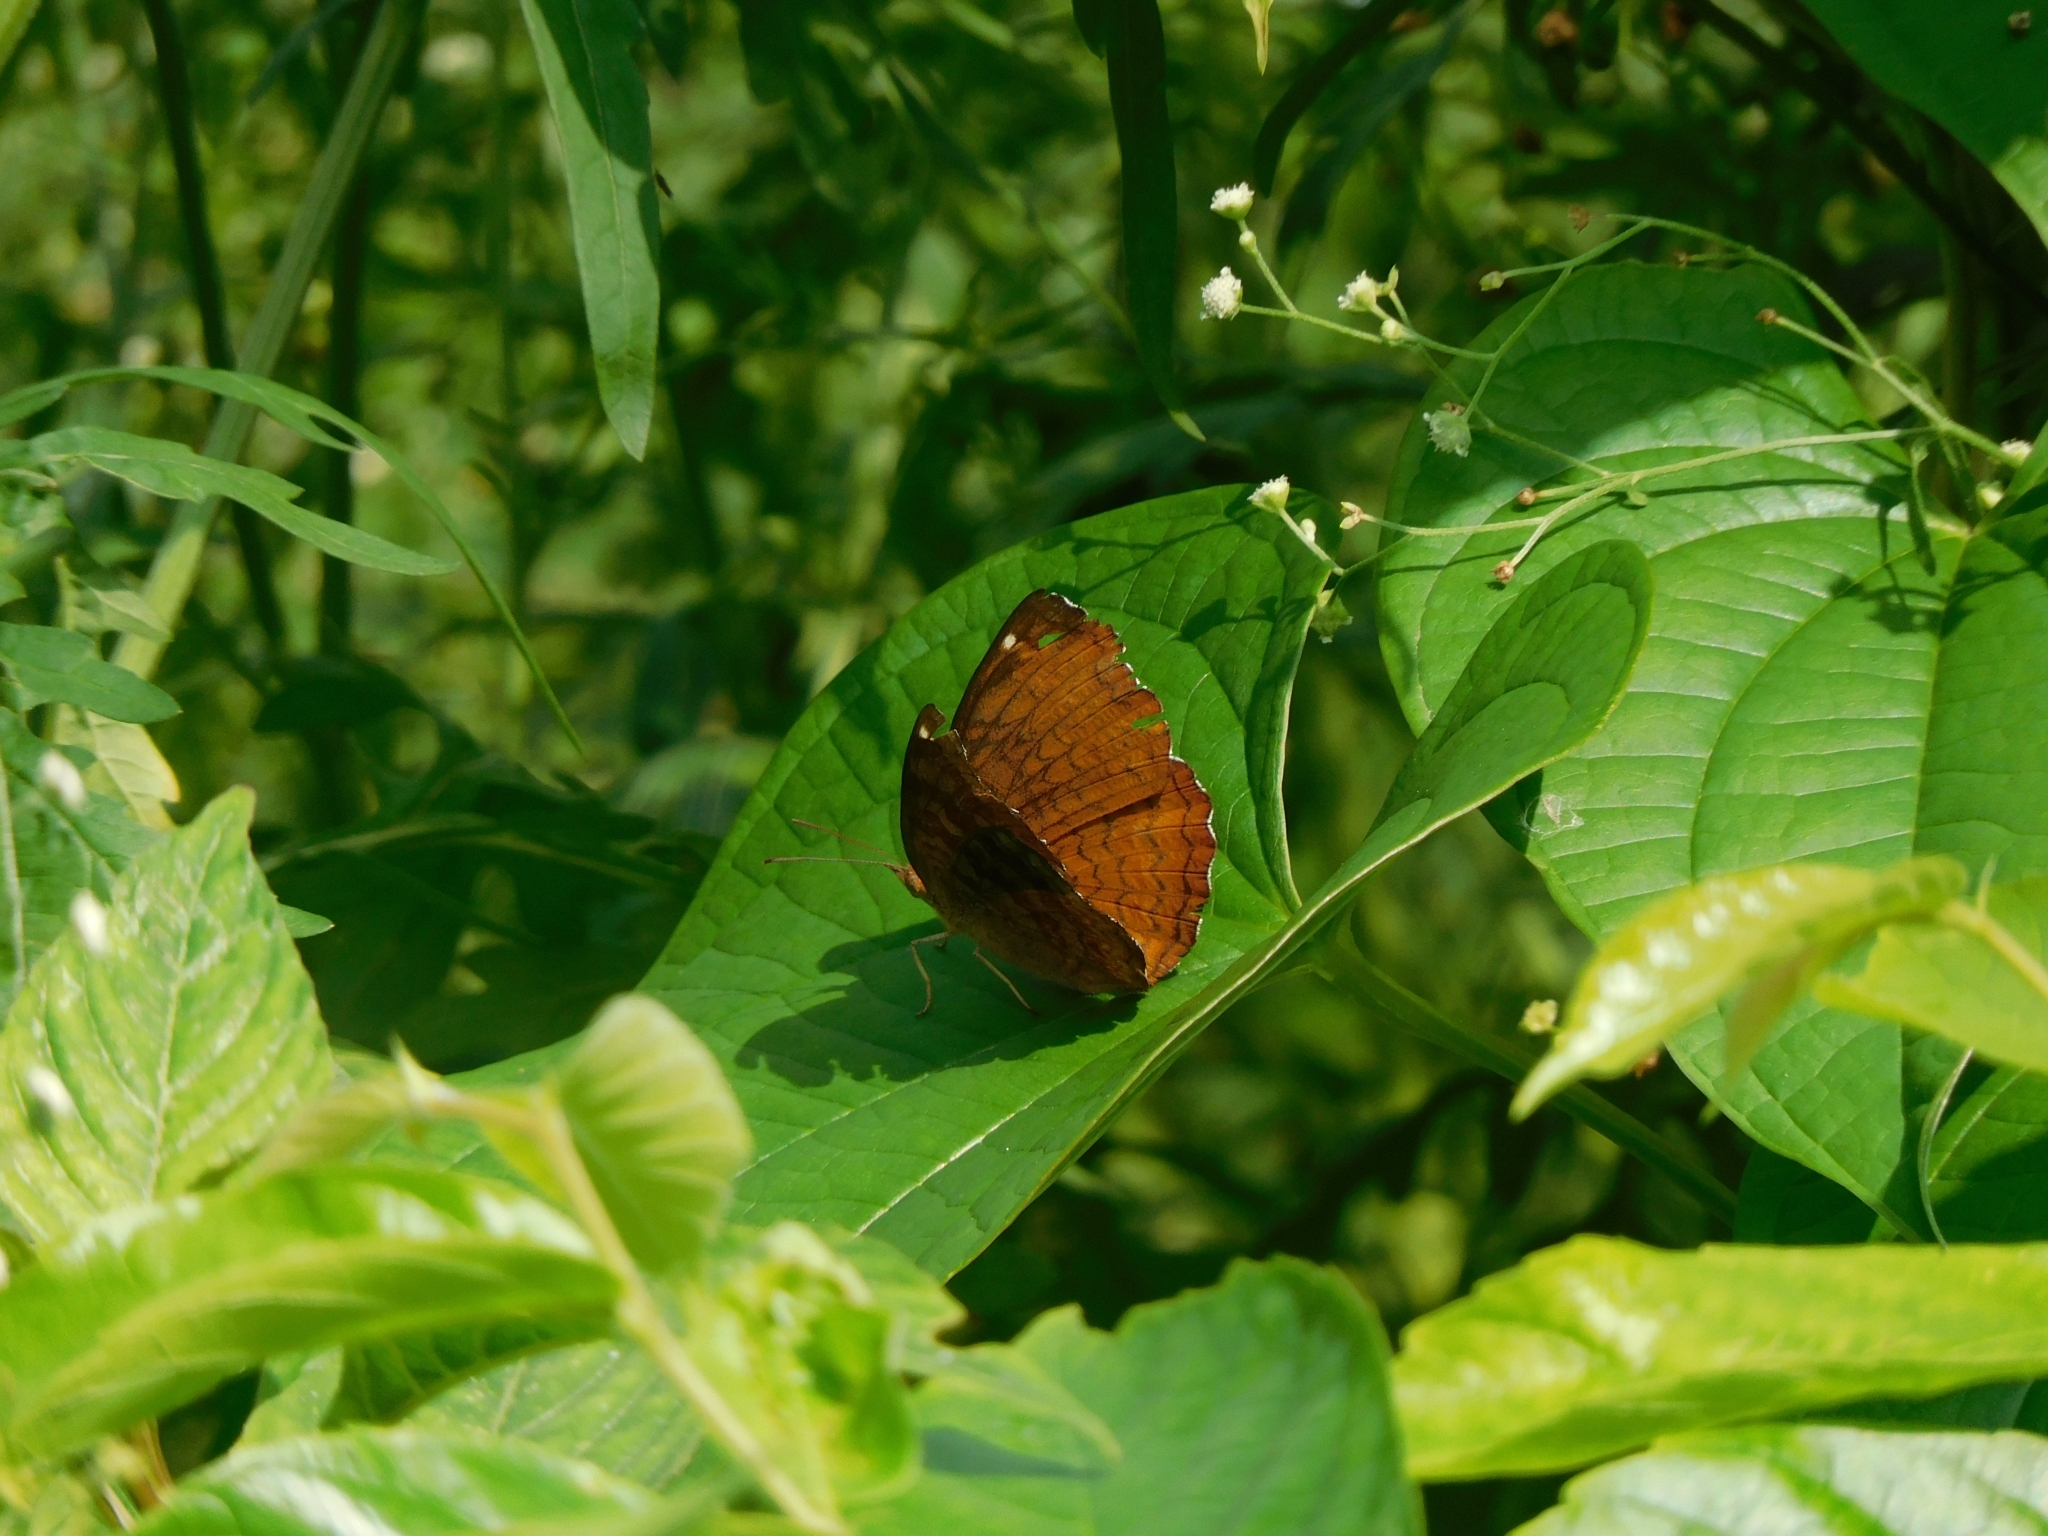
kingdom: Animalia
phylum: Arthropoda
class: Insecta
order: Lepidoptera
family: Nymphalidae
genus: Ariadne
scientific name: Ariadne merione
